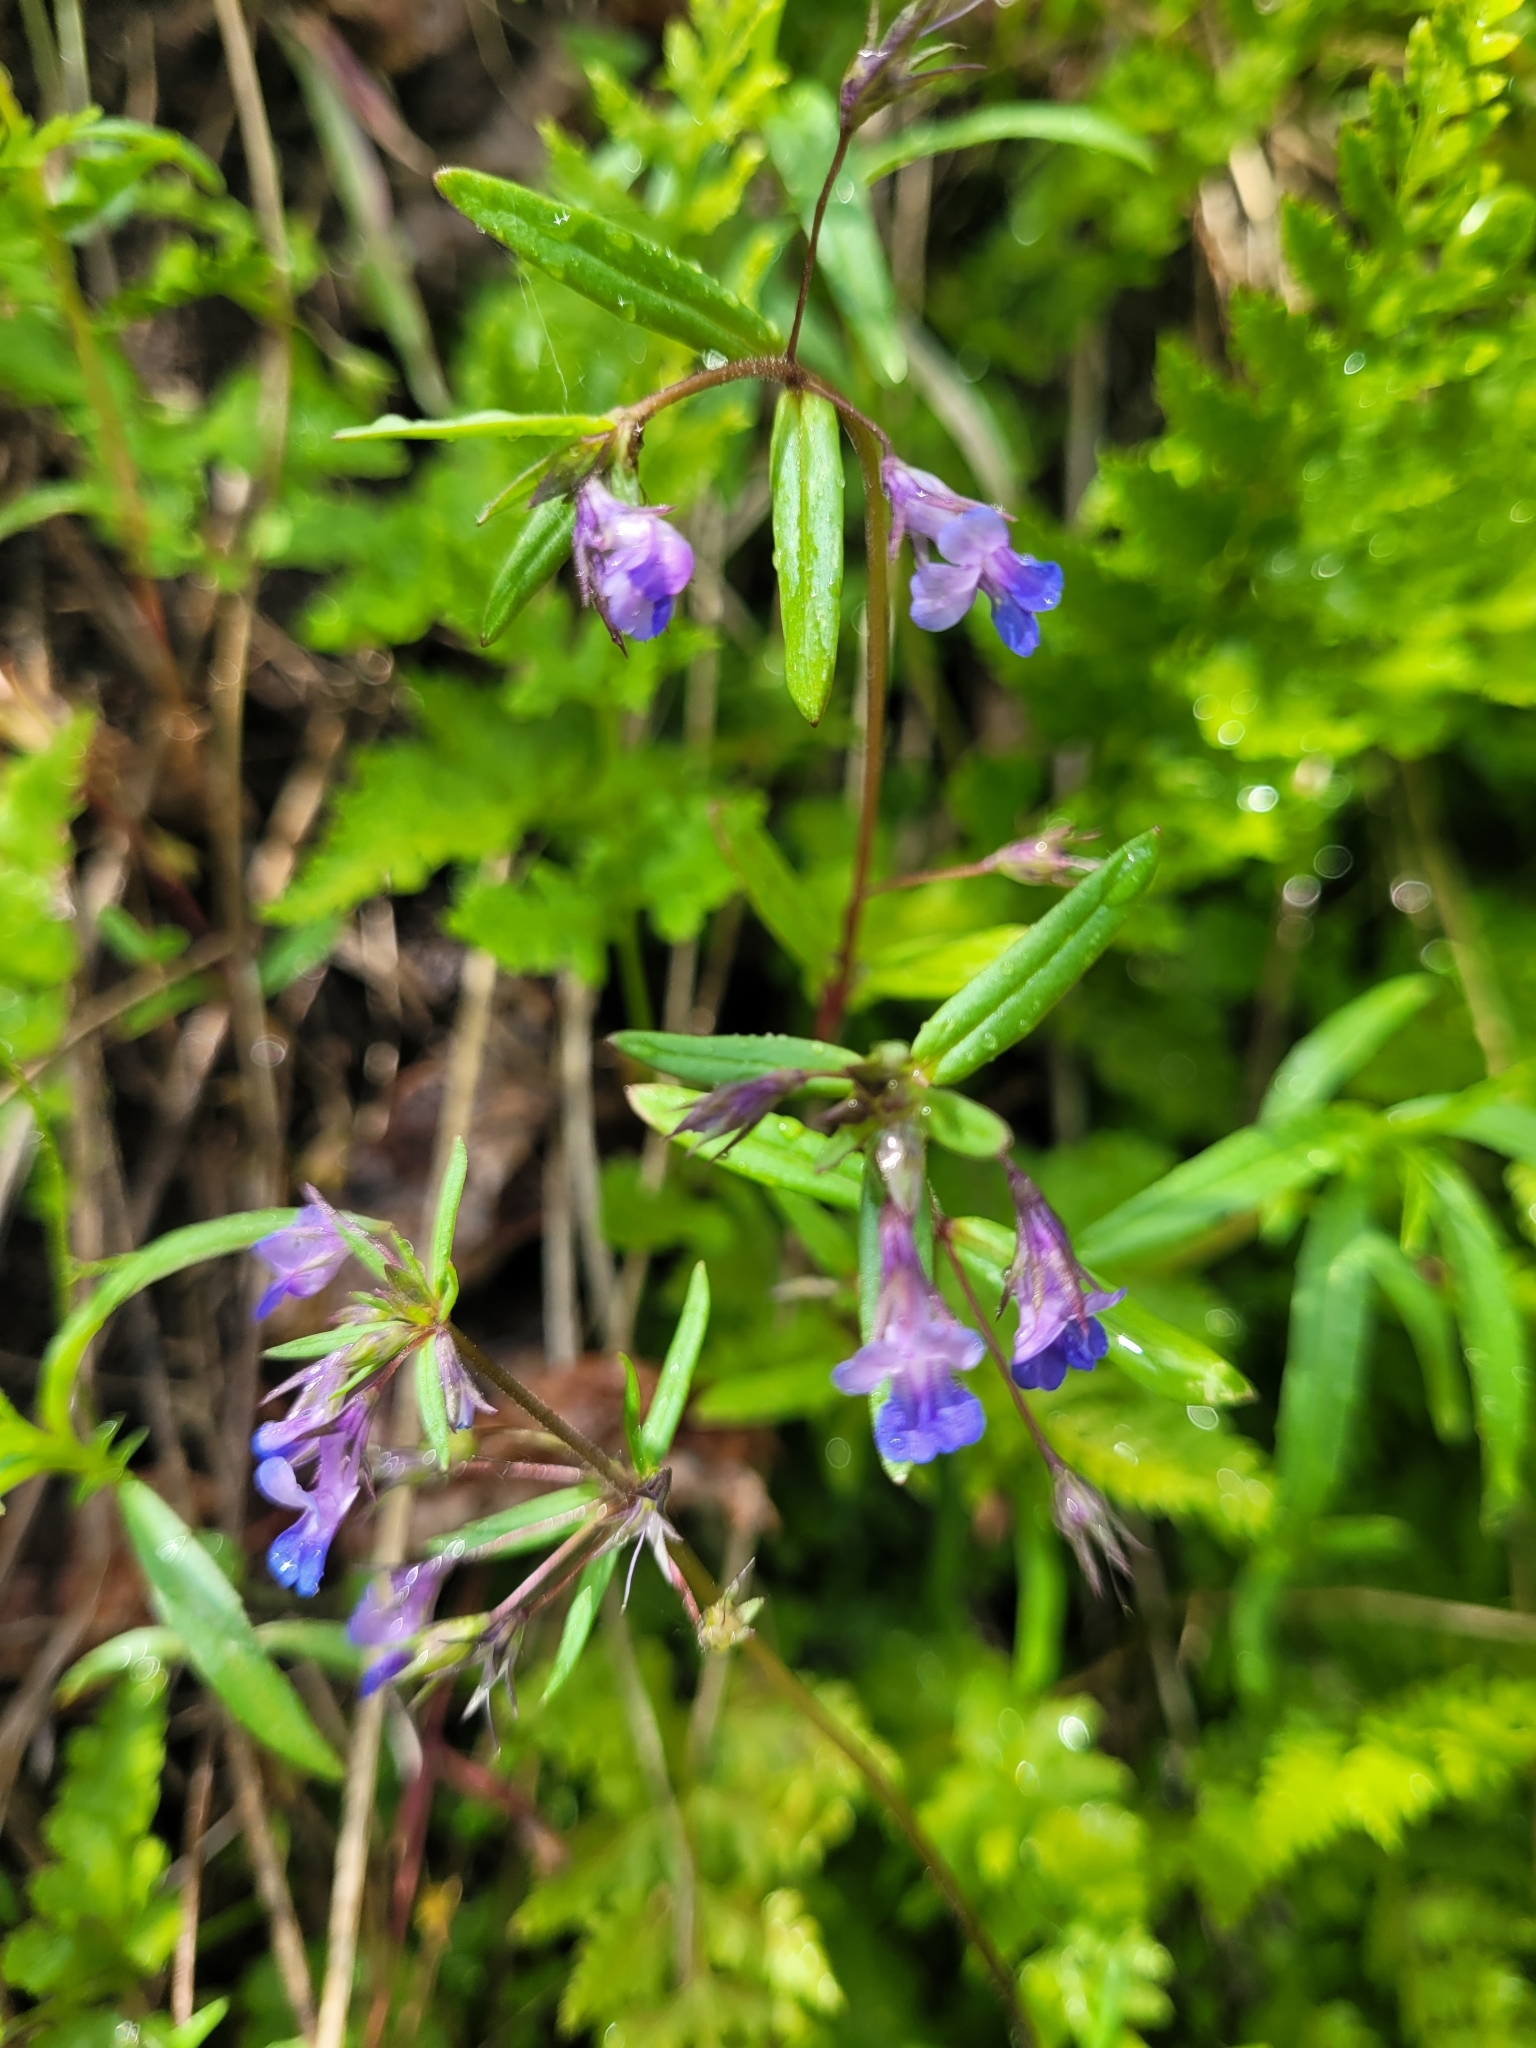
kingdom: Plantae
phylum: Tracheophyta
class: Magnoliopsida
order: Lamiales
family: Plantaginaceae
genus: Collinsia
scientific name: Collinsia parviflora
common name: Blue-lips
